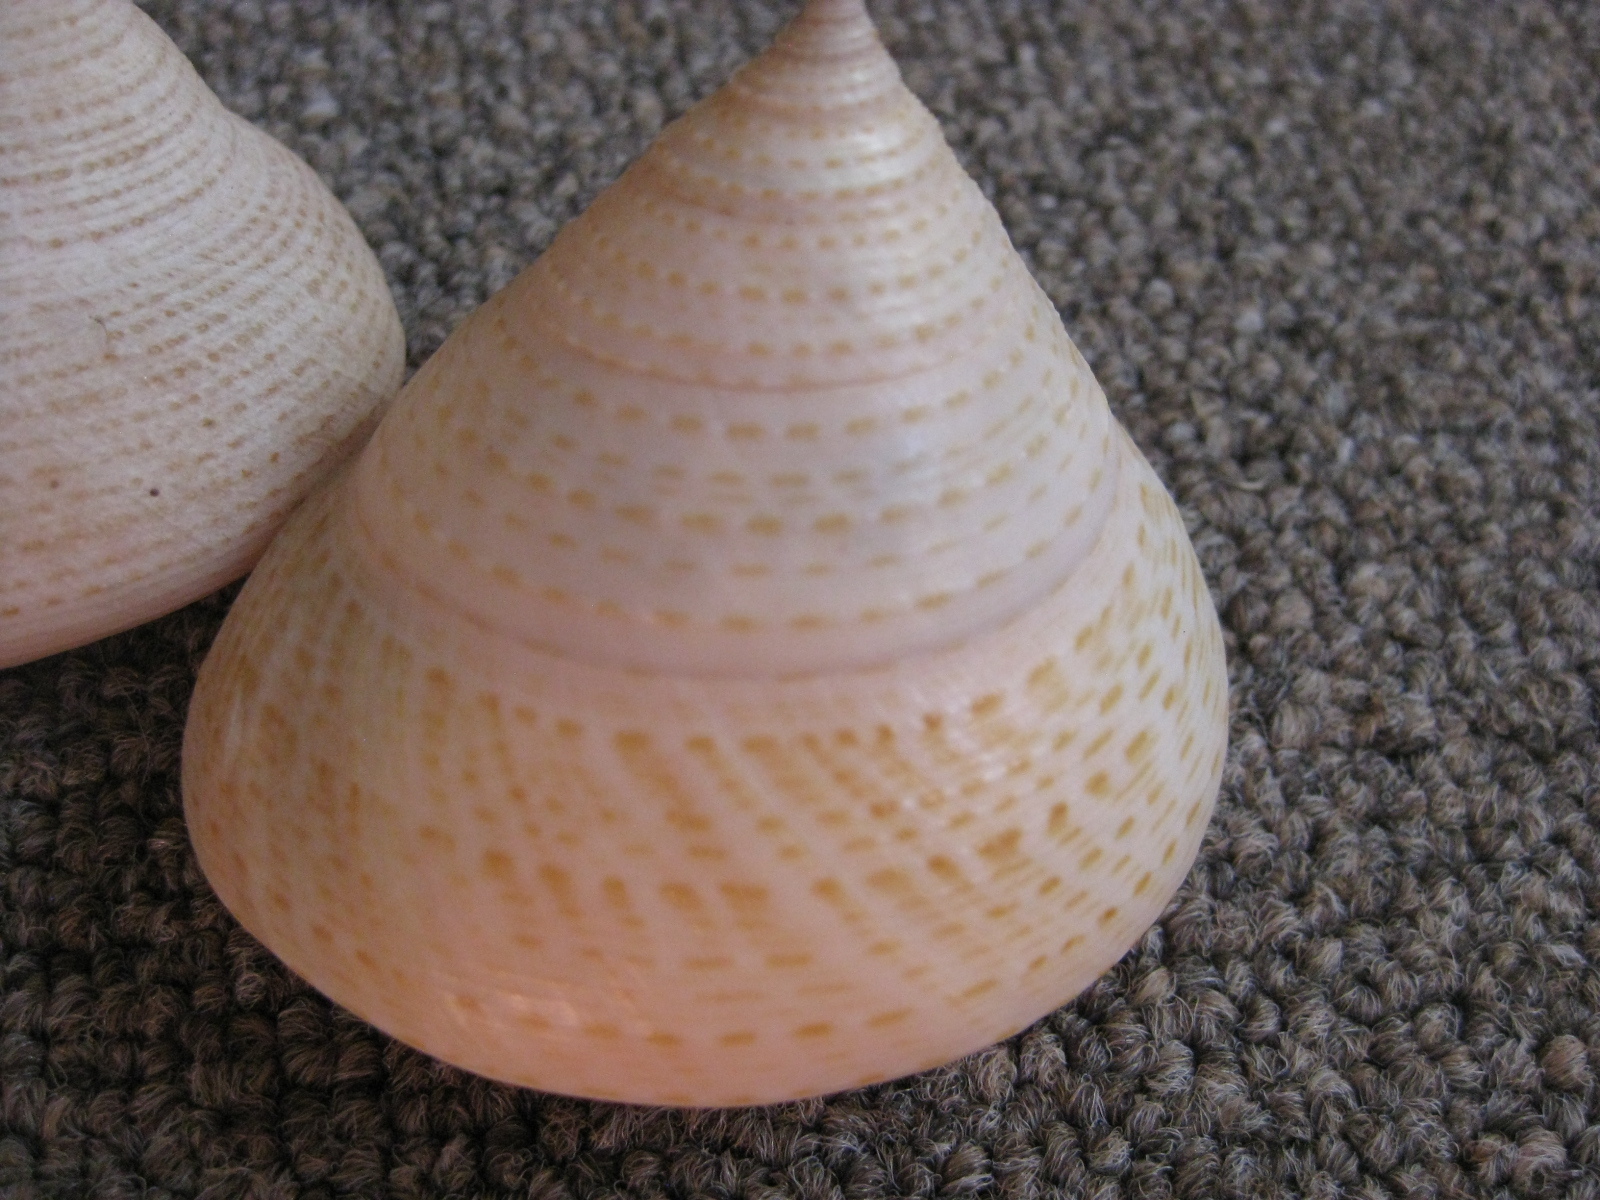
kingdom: Animalia
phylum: Mollusca
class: Gastropoda
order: Trochida
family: Calliostomatidae
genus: Maurea
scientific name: Maurea selecta
